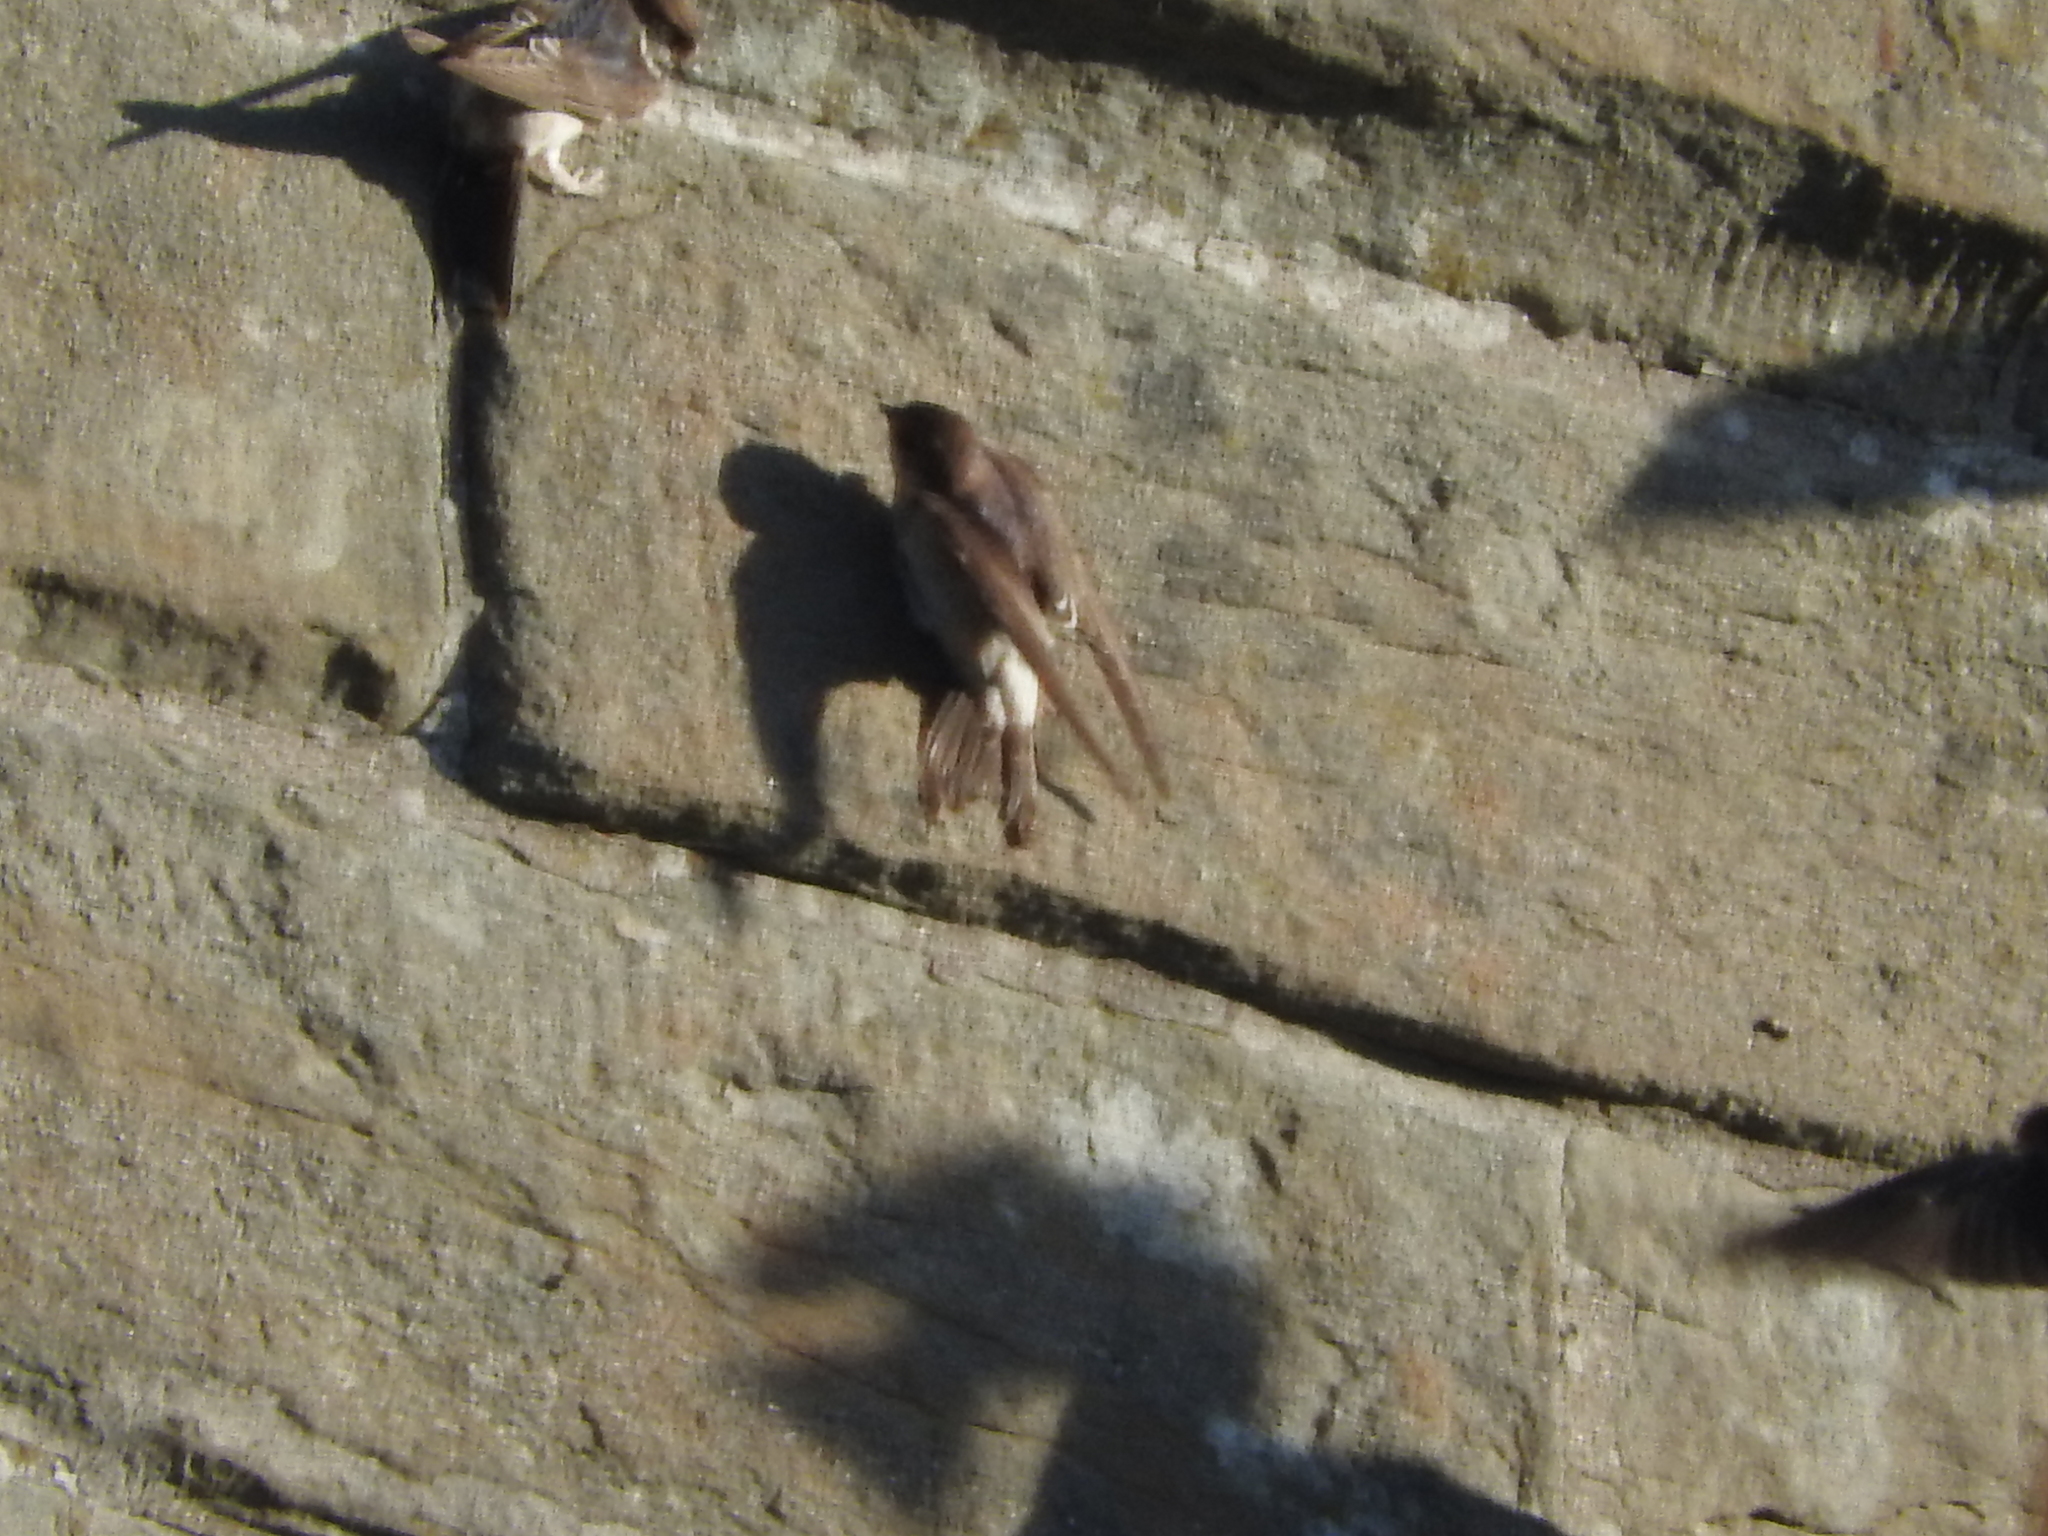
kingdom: Animalia
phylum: Chordata
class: Aves
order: Passeriformes
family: Hirundinidae
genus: Delichon
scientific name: Delichon urbicum
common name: Common house martin
